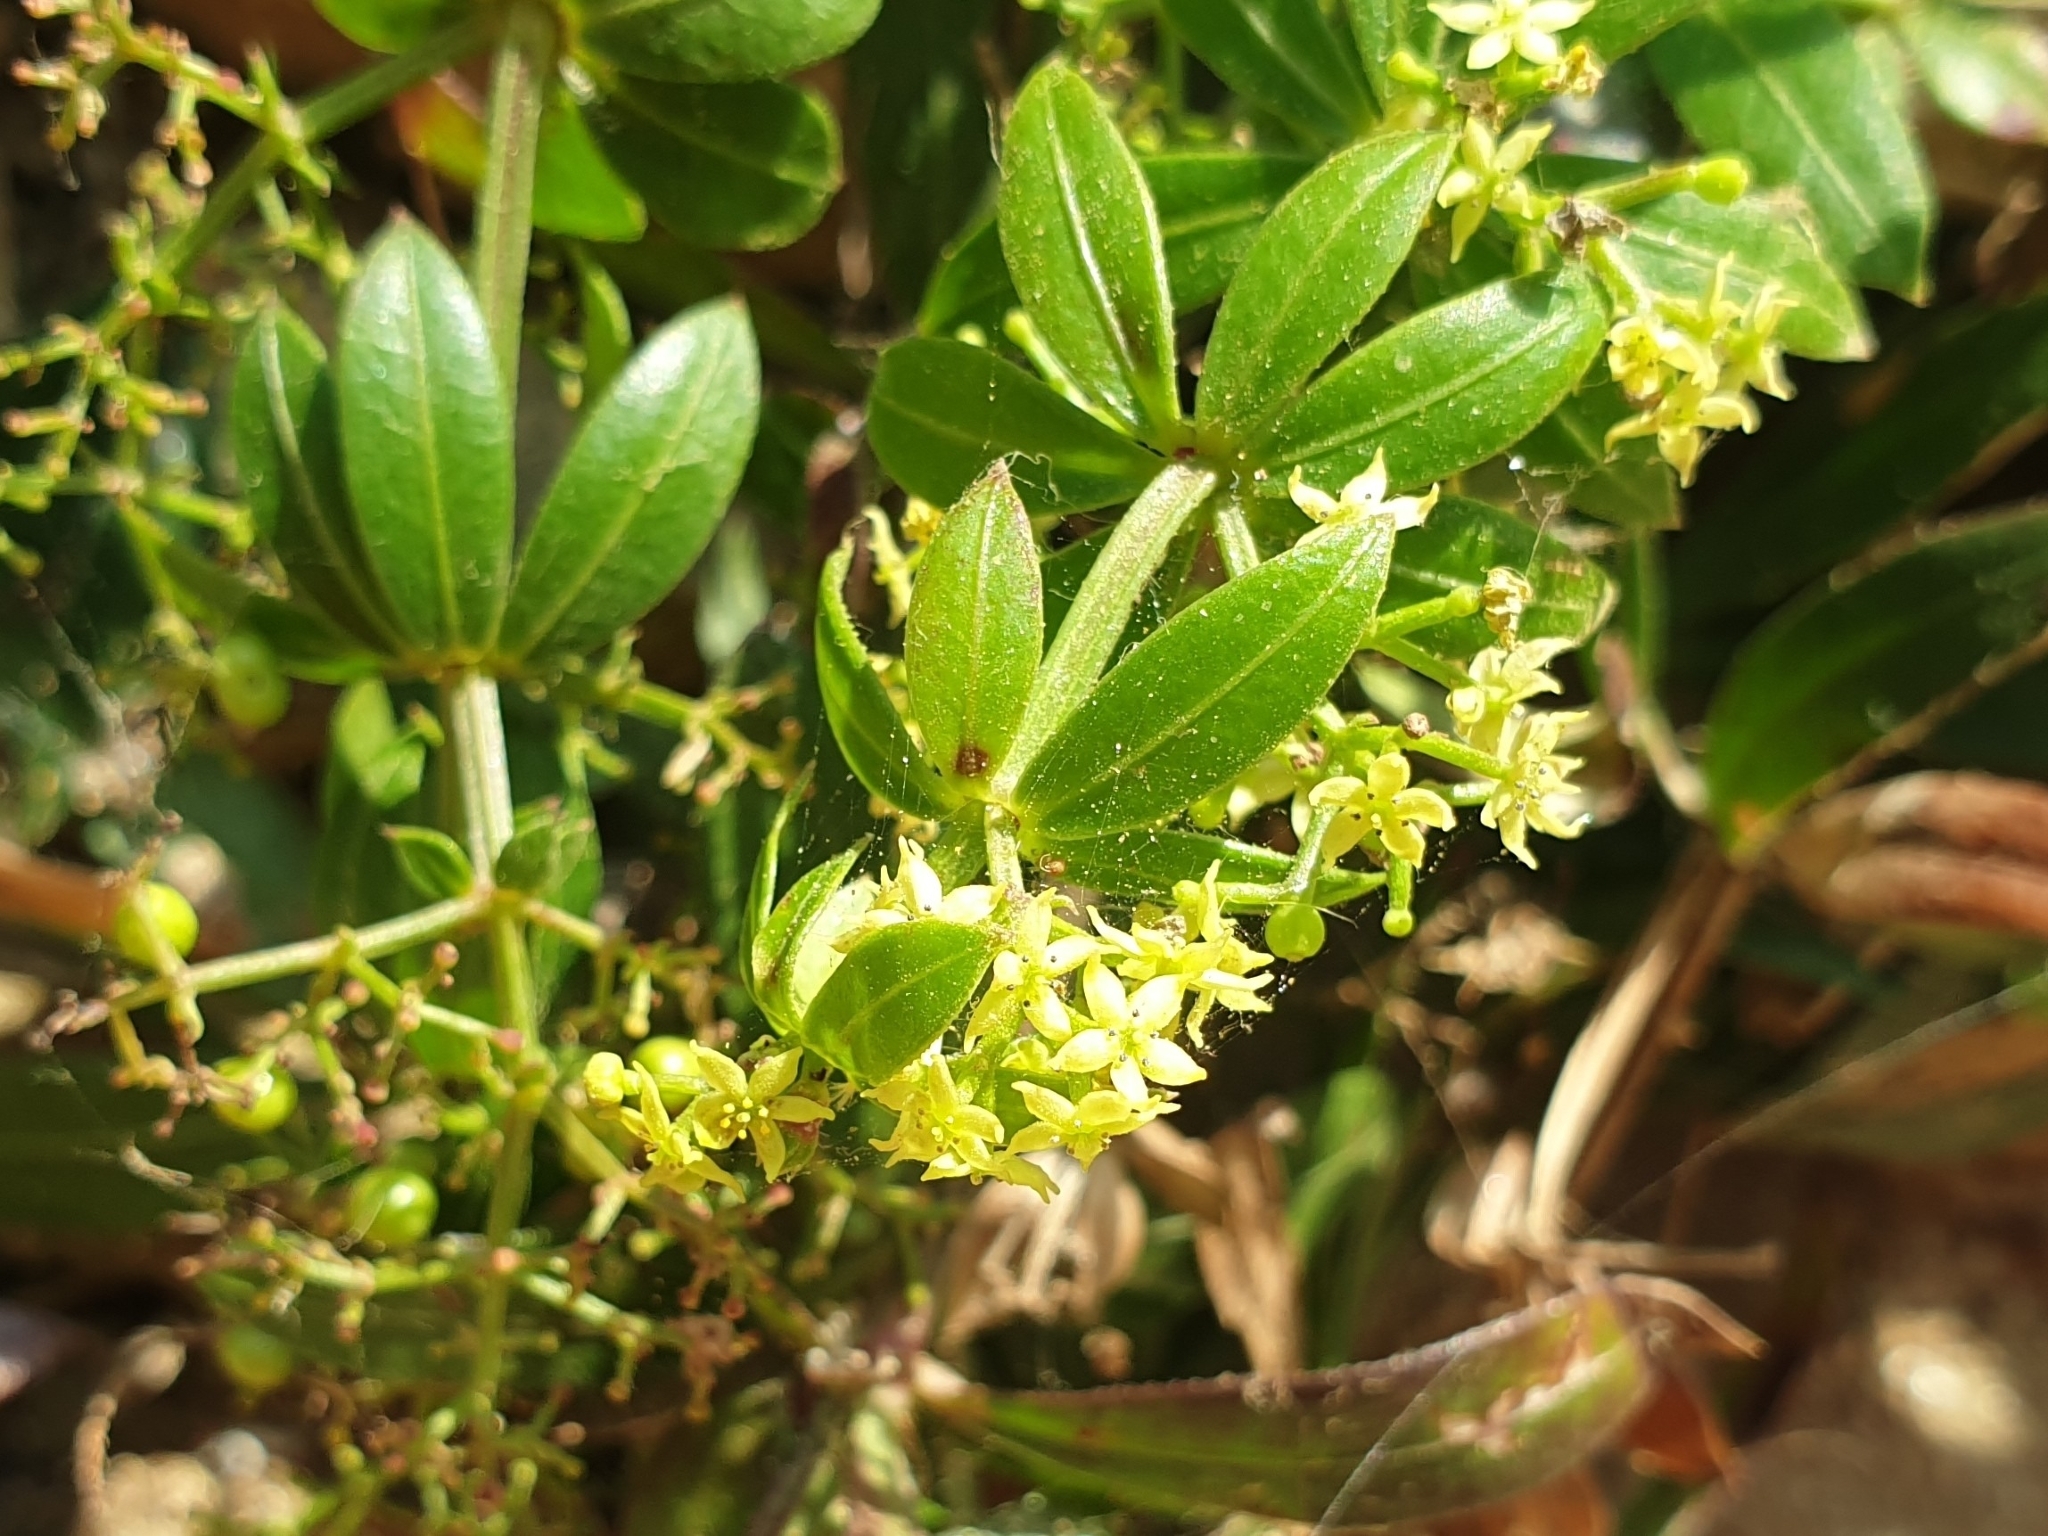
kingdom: Plantae
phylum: Tracheophyta
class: Magnoliopsida
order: Gentianales
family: Rubiaceae
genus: Rubia
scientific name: Rubia peregrina
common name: Wild madder
